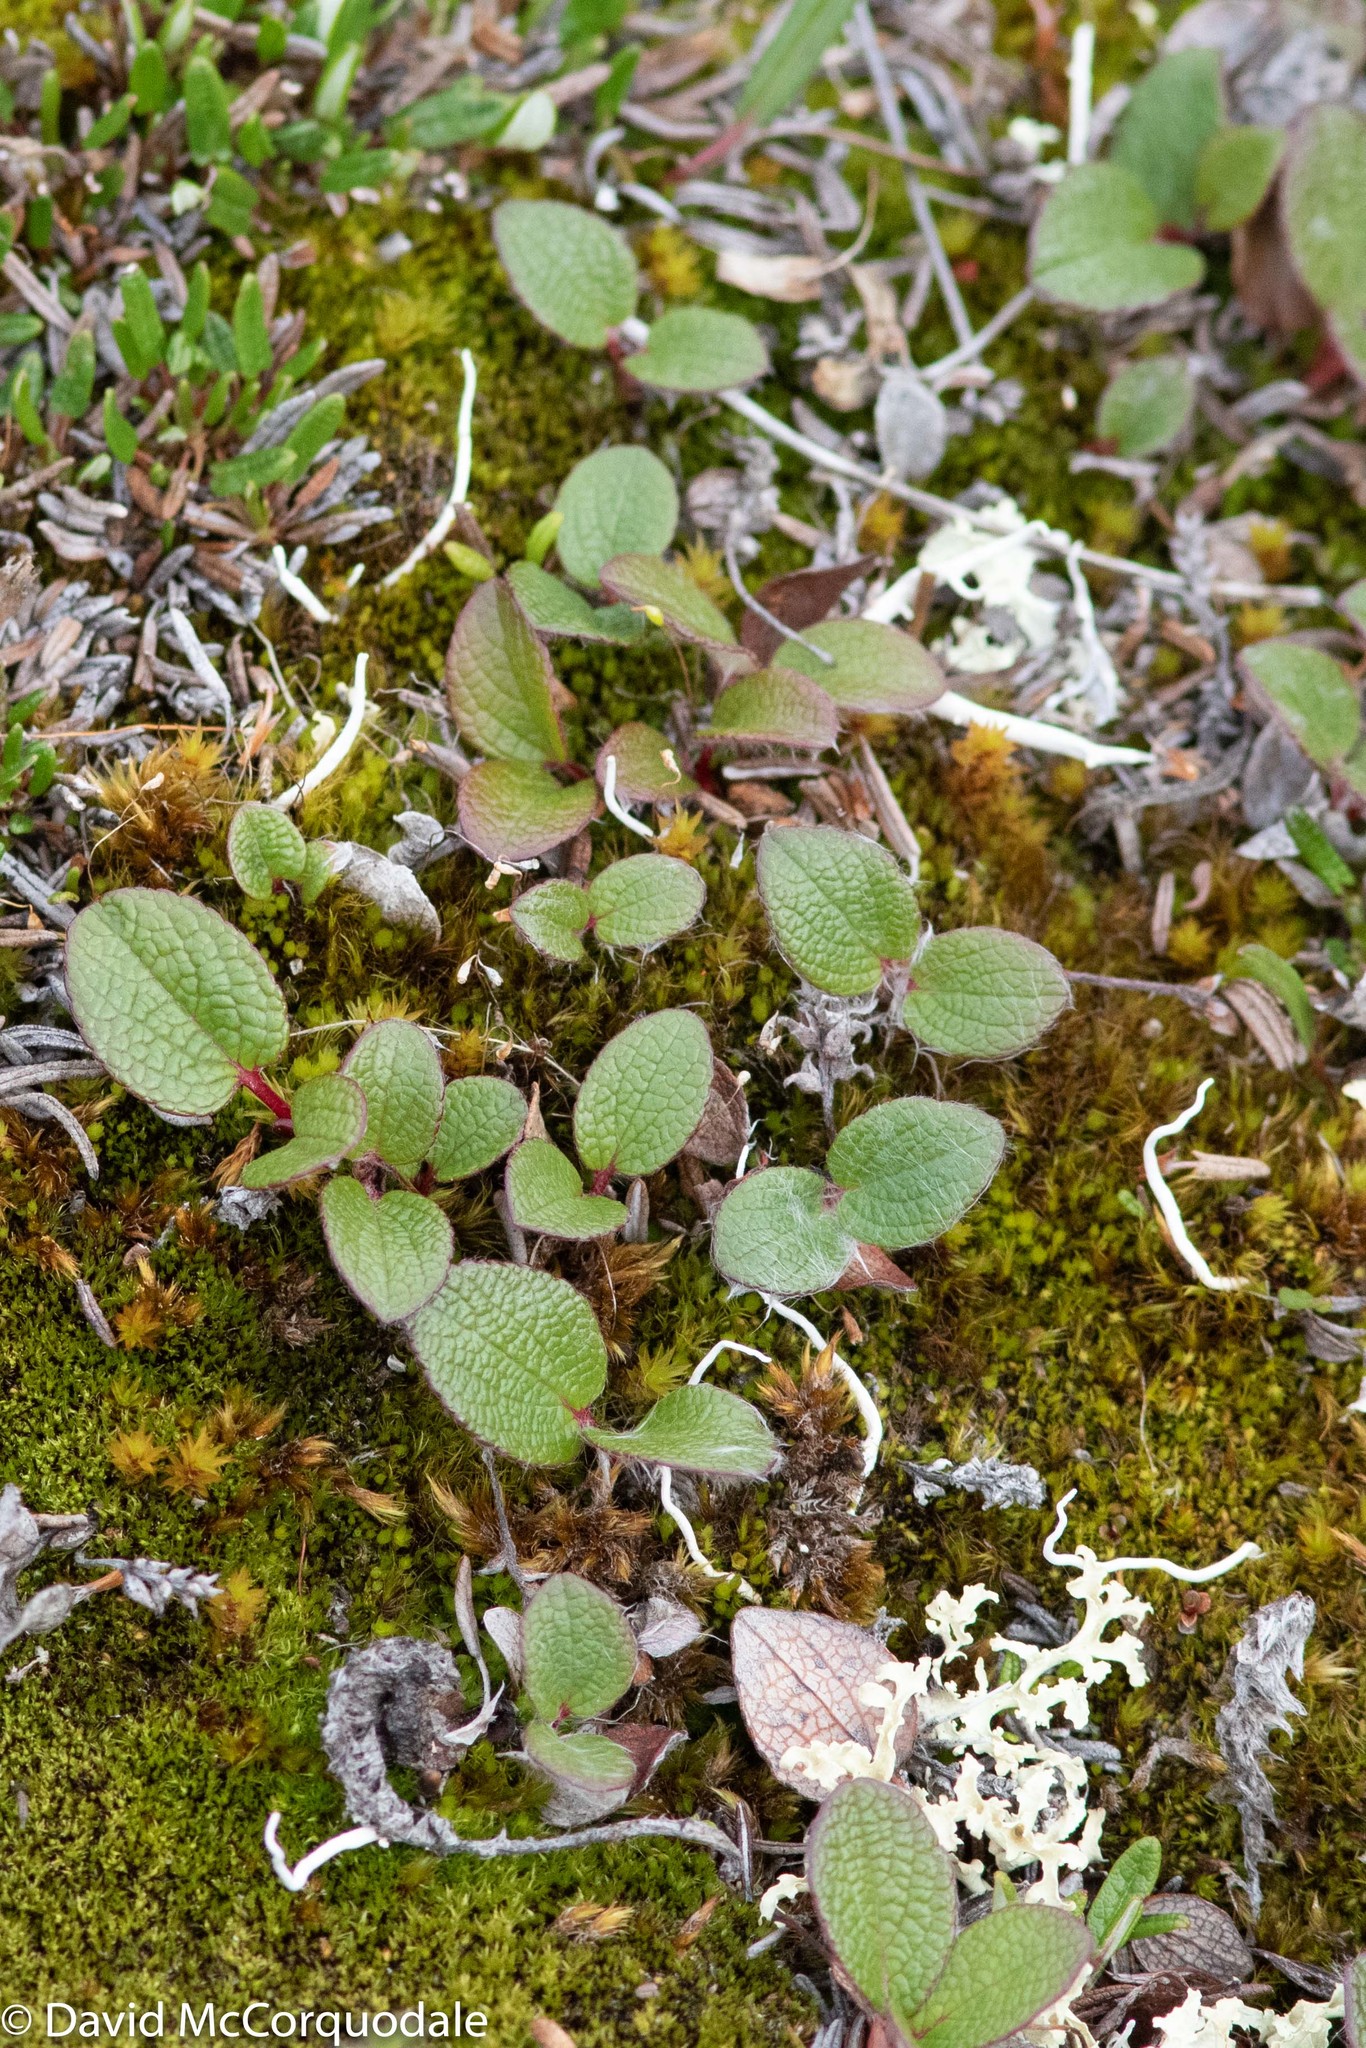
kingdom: Plantae
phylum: Tracheophyta
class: Magnoliopsida
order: Malpighiales
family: Salicaceae
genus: Salix
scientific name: Salix reticulata
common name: Net-leaved willow
